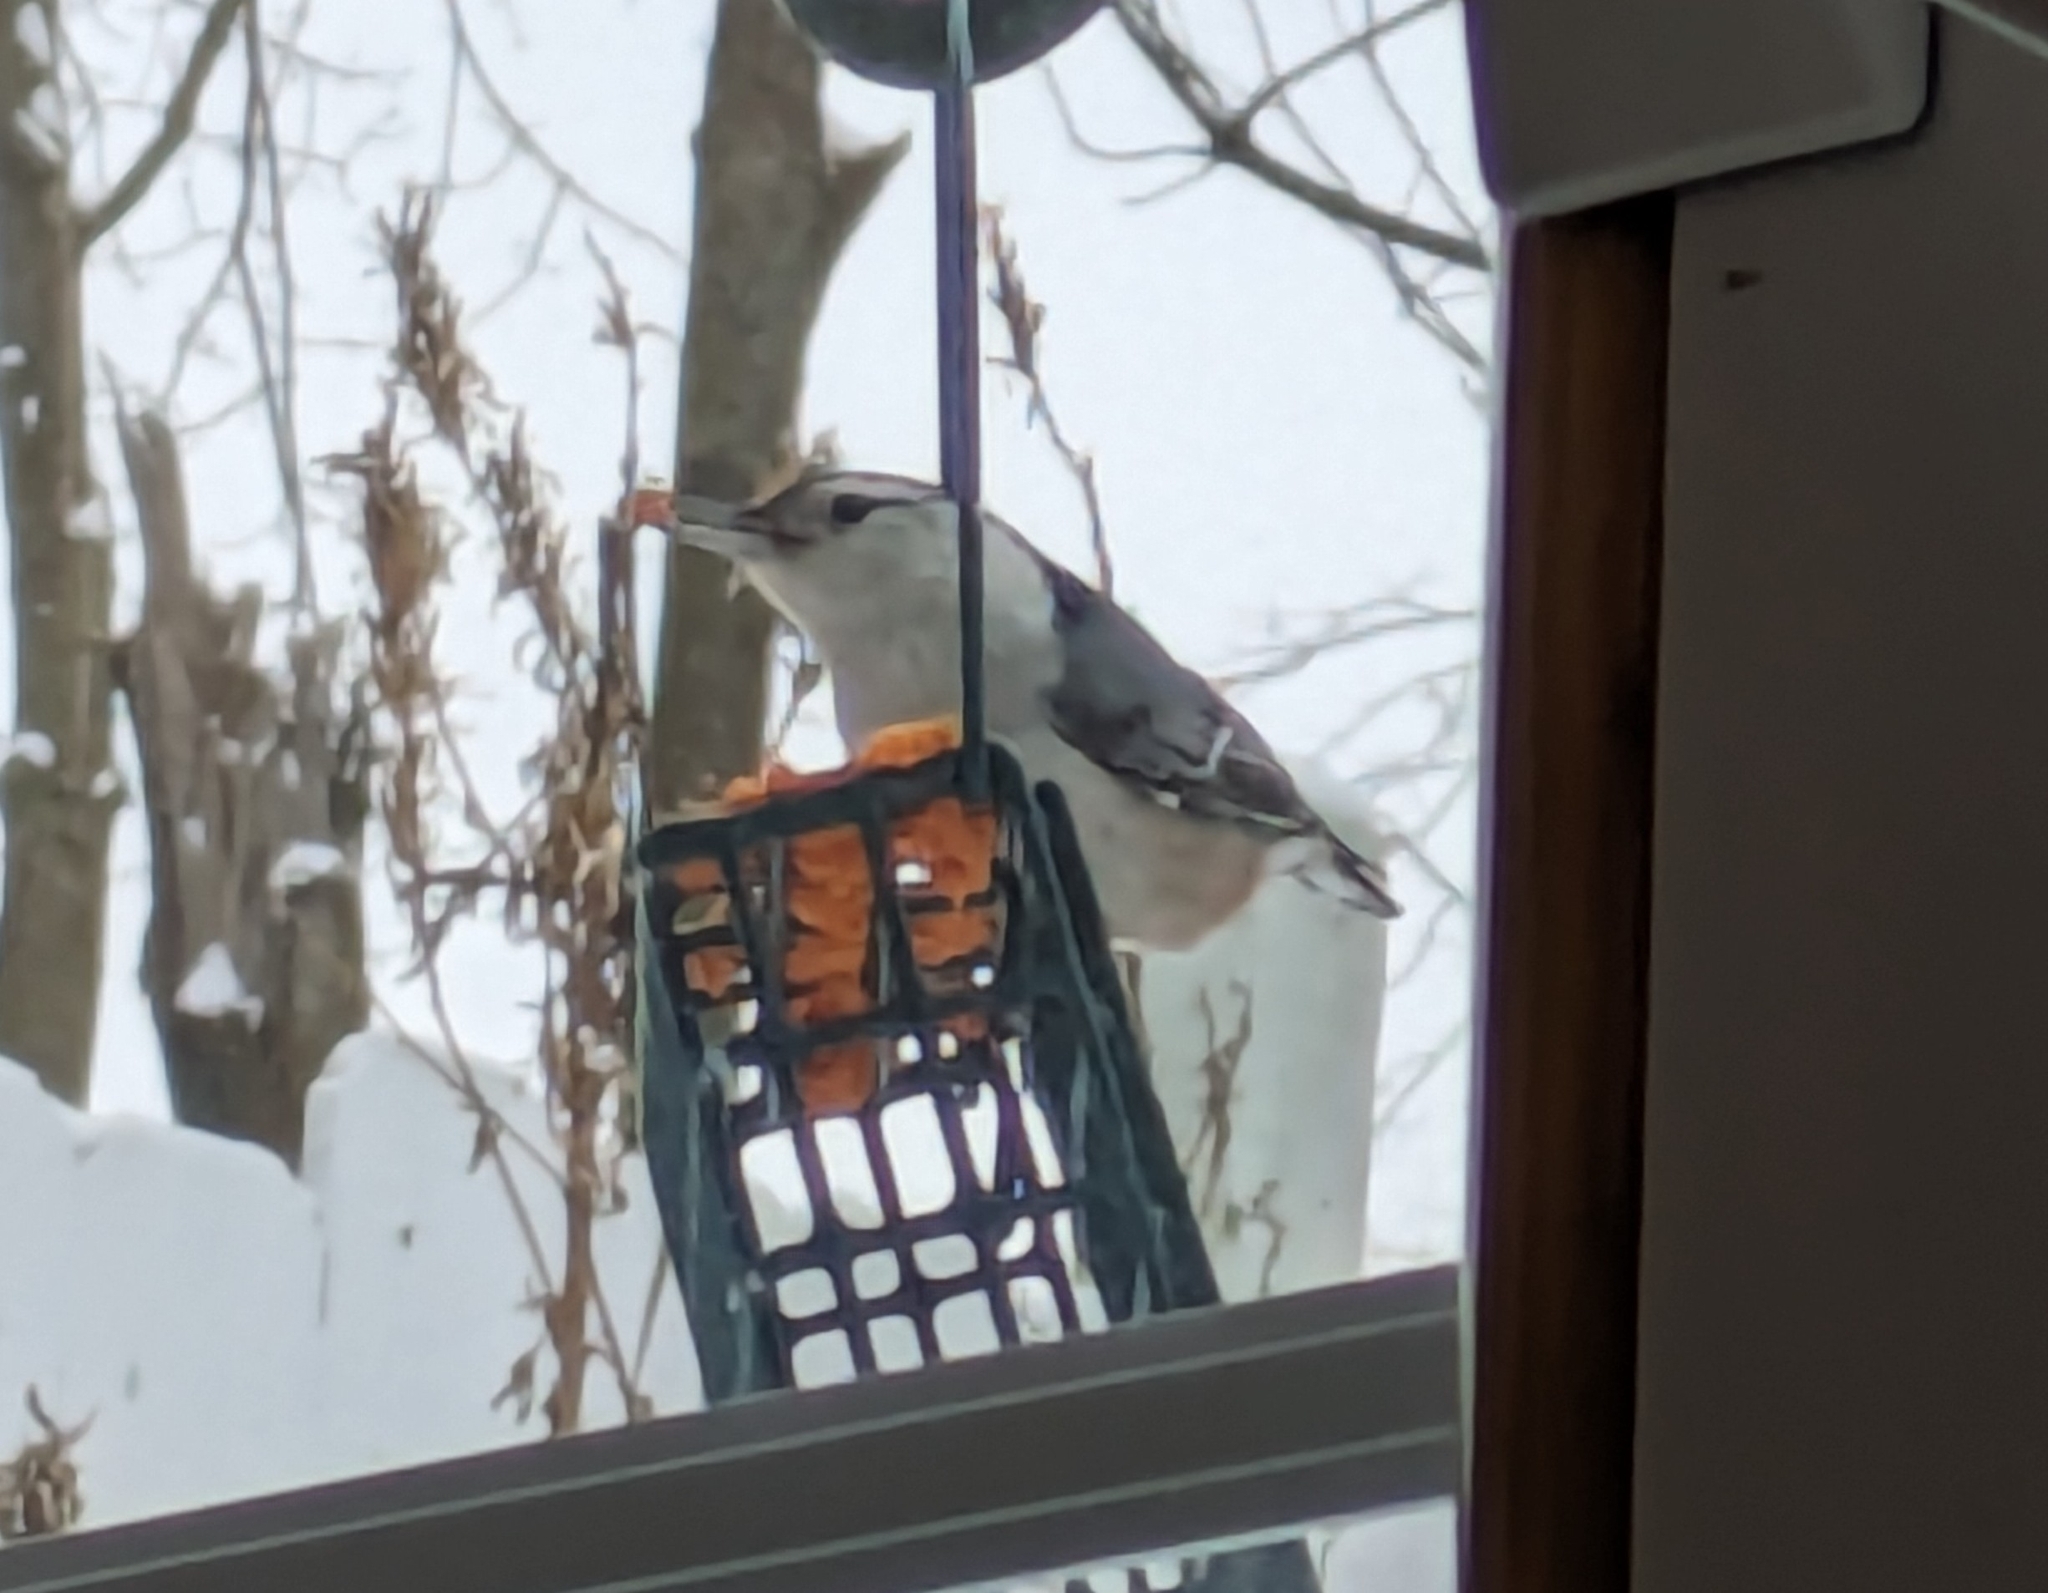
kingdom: Animalia
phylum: Chordata
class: Aves
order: Passeriformes
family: Sittidae
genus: Sitta
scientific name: Sitta carolinensis
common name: White-breasted nuthatch
